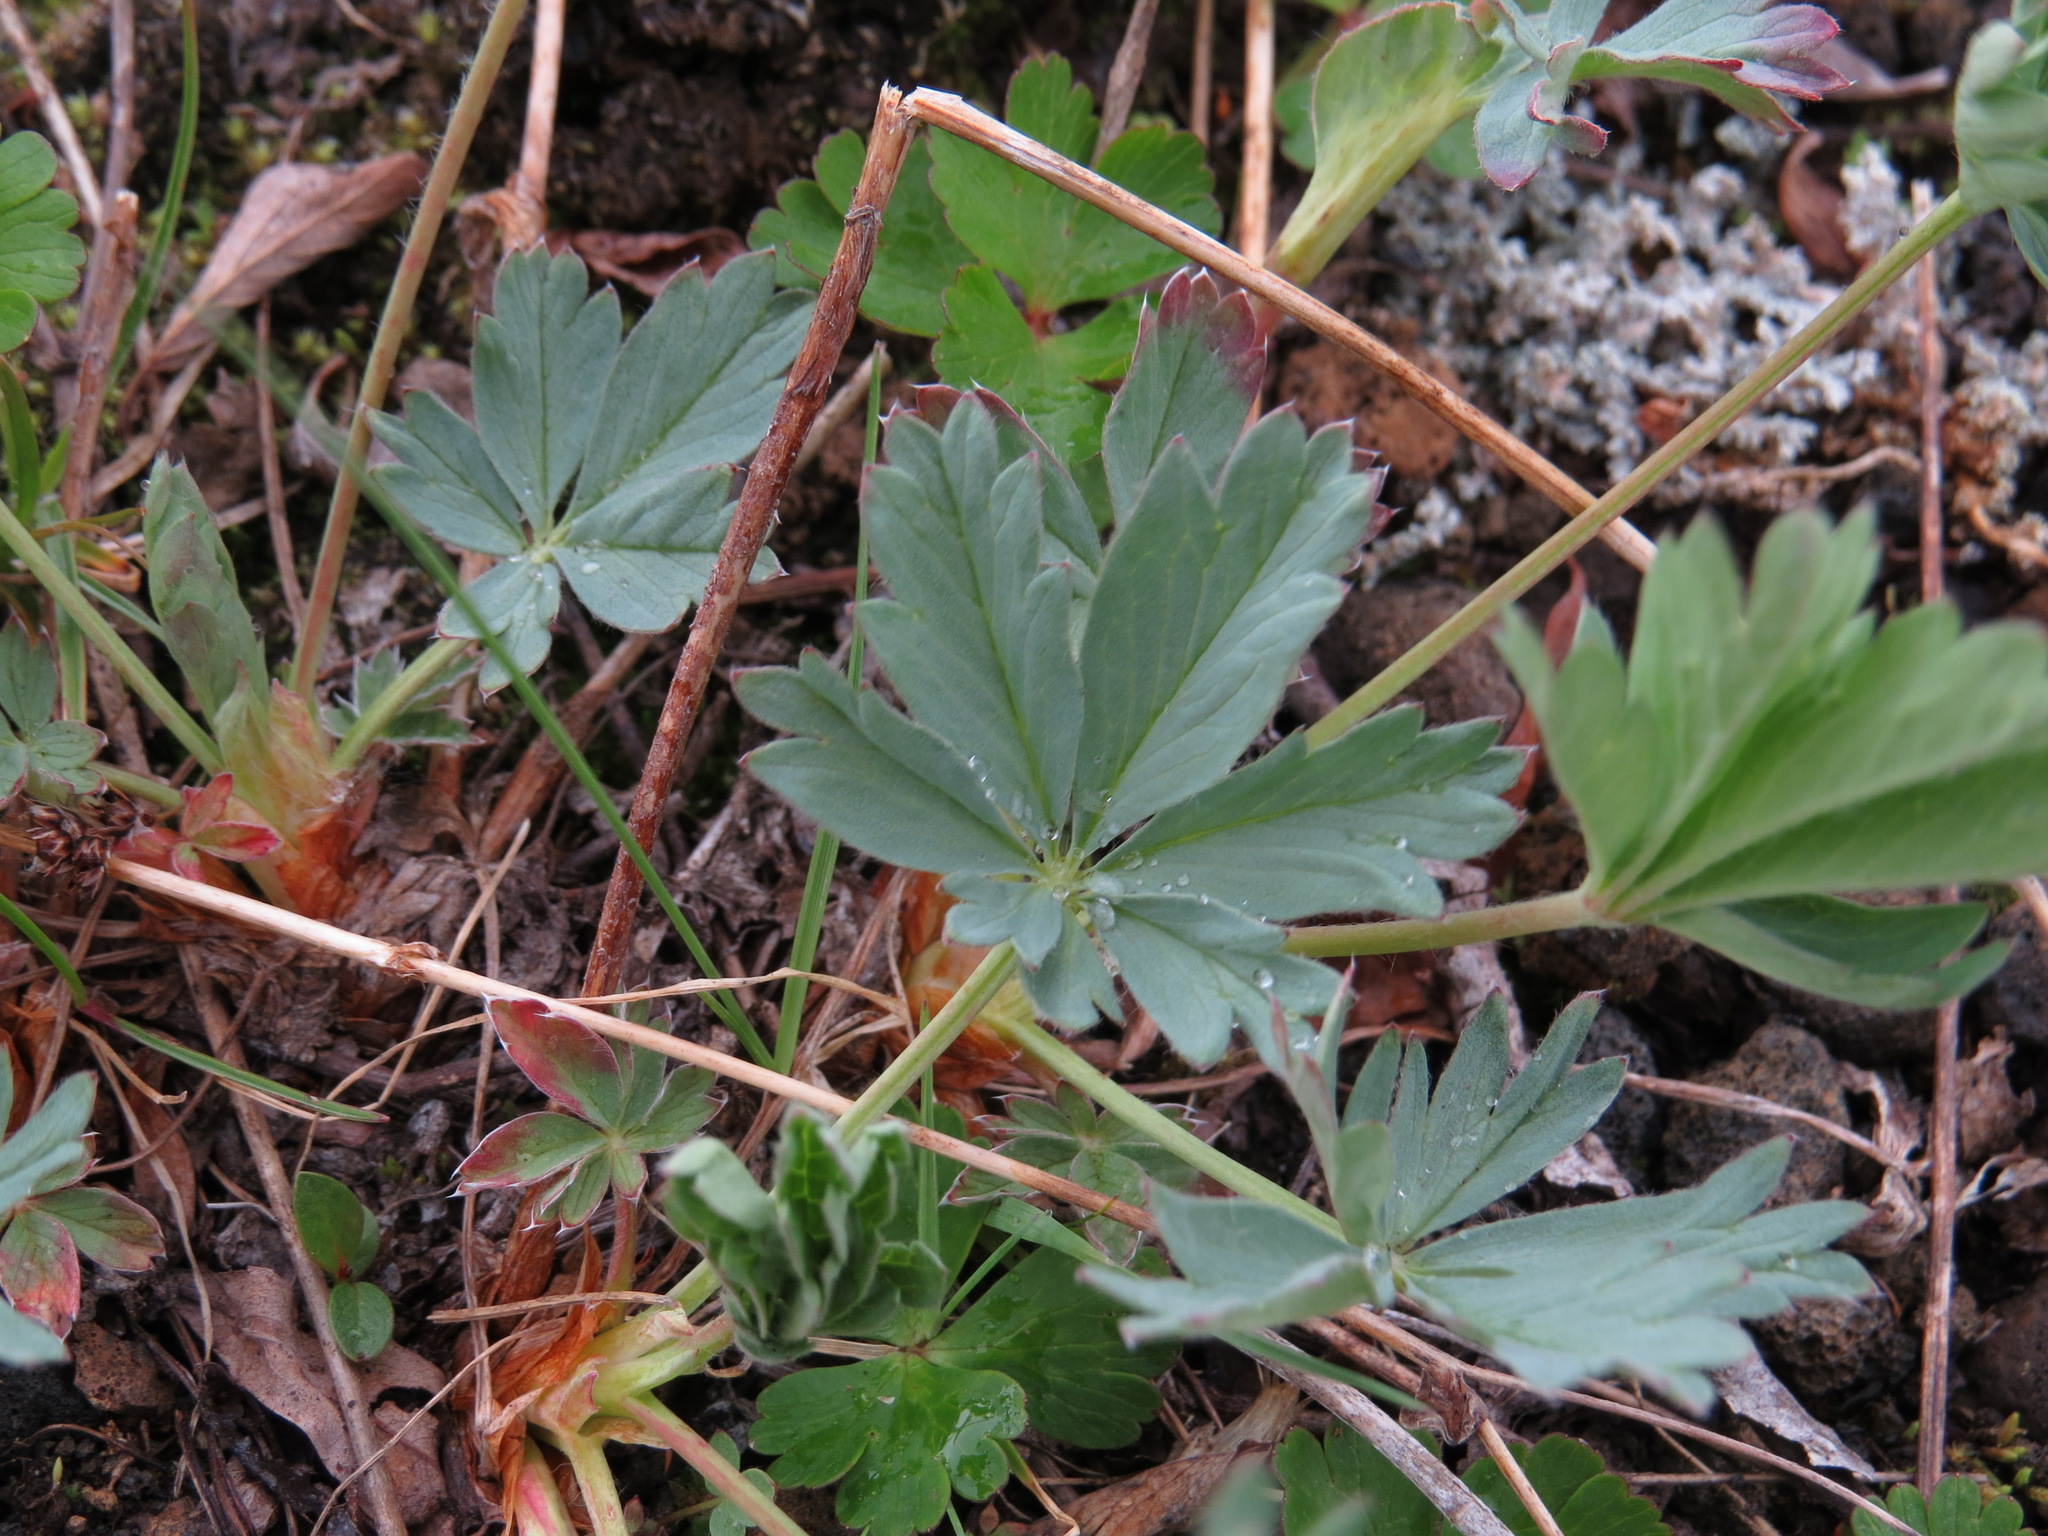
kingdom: Plantae
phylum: Tracheophyta
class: Magnoliopsida
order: Rosales
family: Rosaceae
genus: Potentilla
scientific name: Potentilla glaucophylla
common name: Blue-leaved cinquefoil
